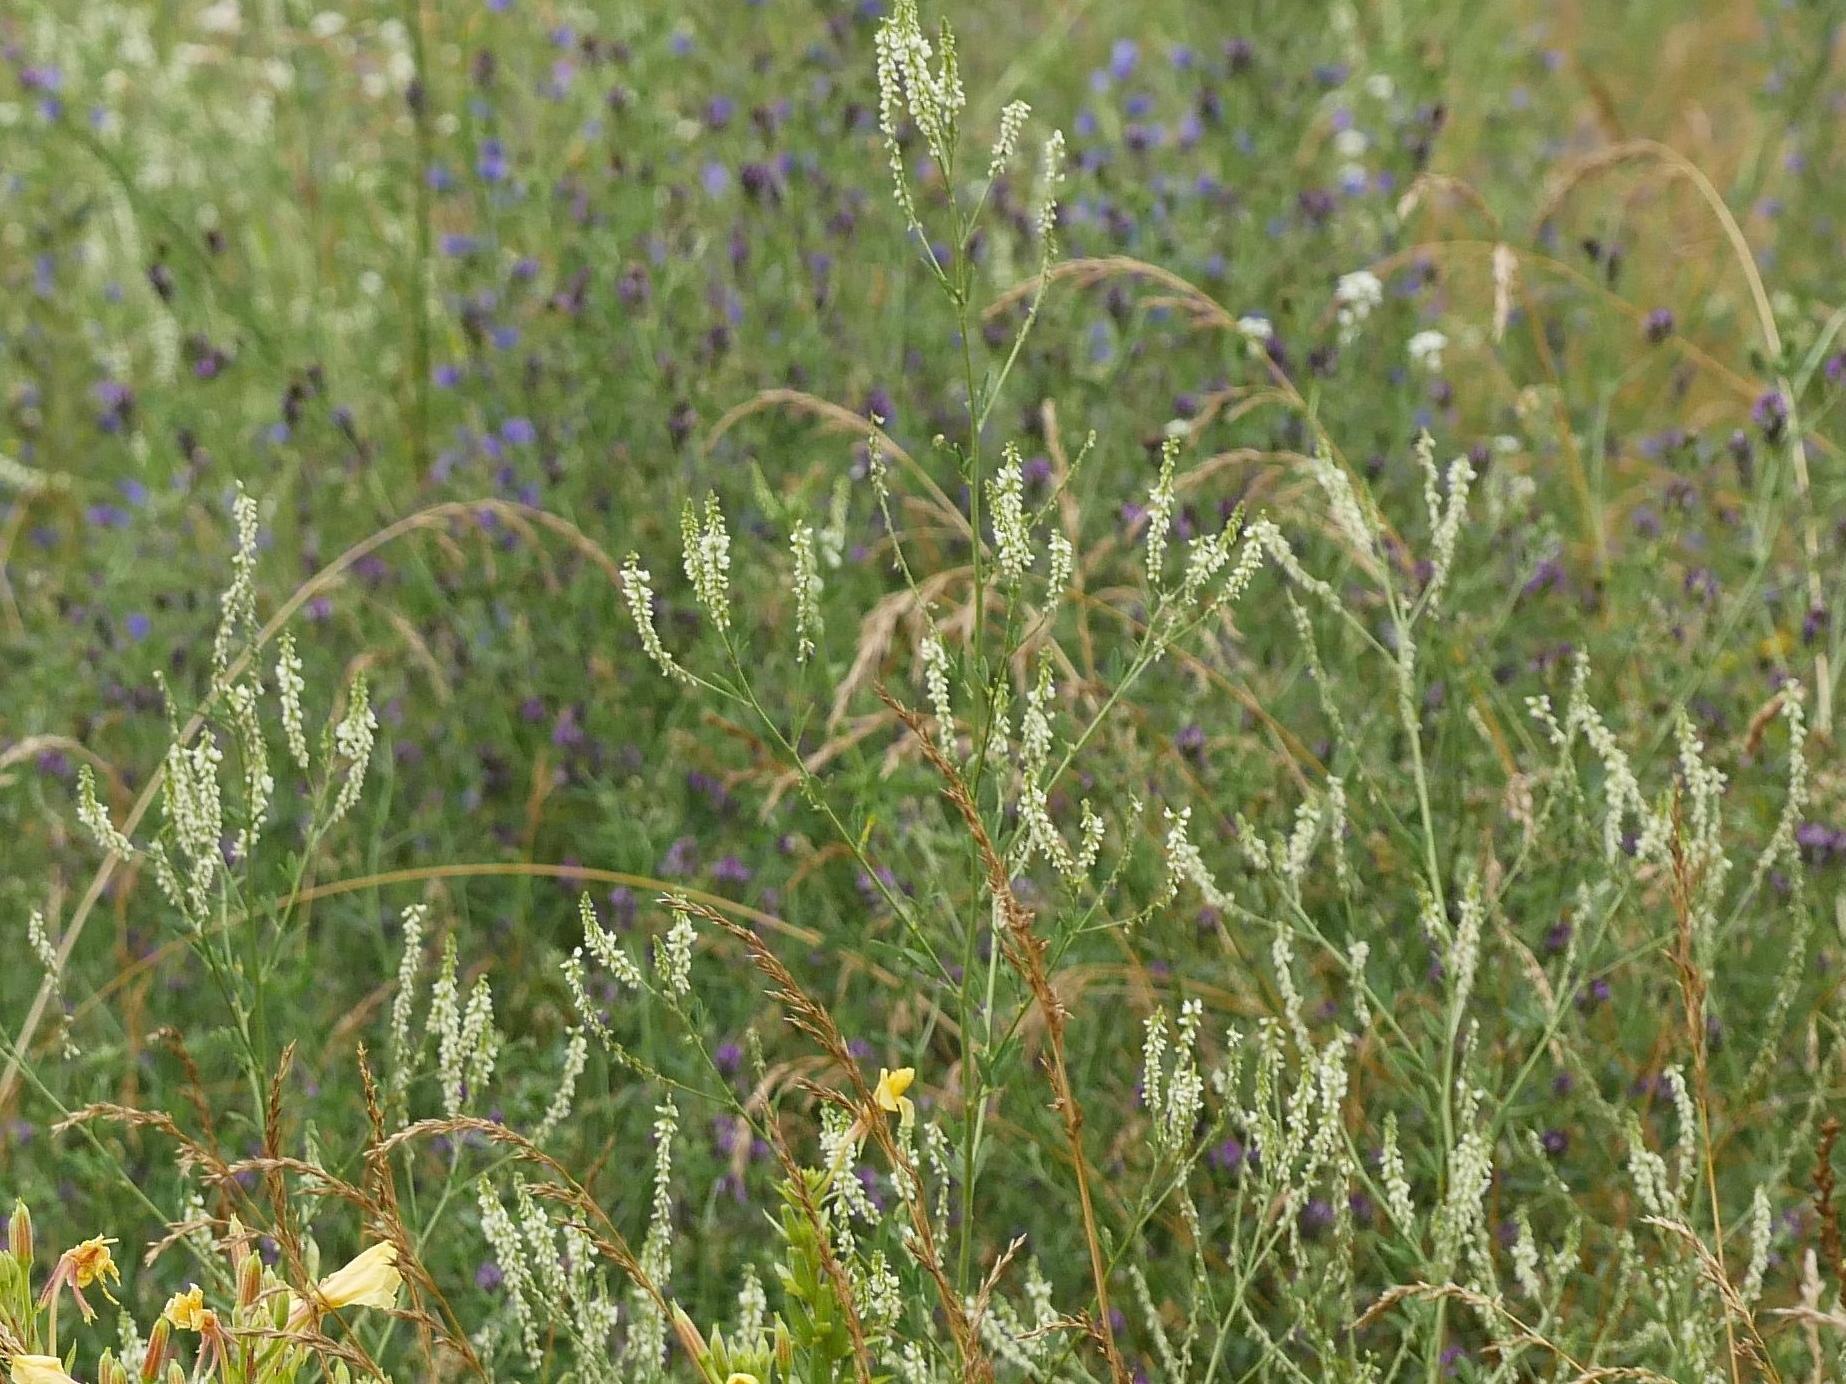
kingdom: Plantae
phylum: Tracheophyta
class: Magnoliopsida
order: Fabales
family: Fabaceae
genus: Melilotus
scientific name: Melilotus albus
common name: White melilot
